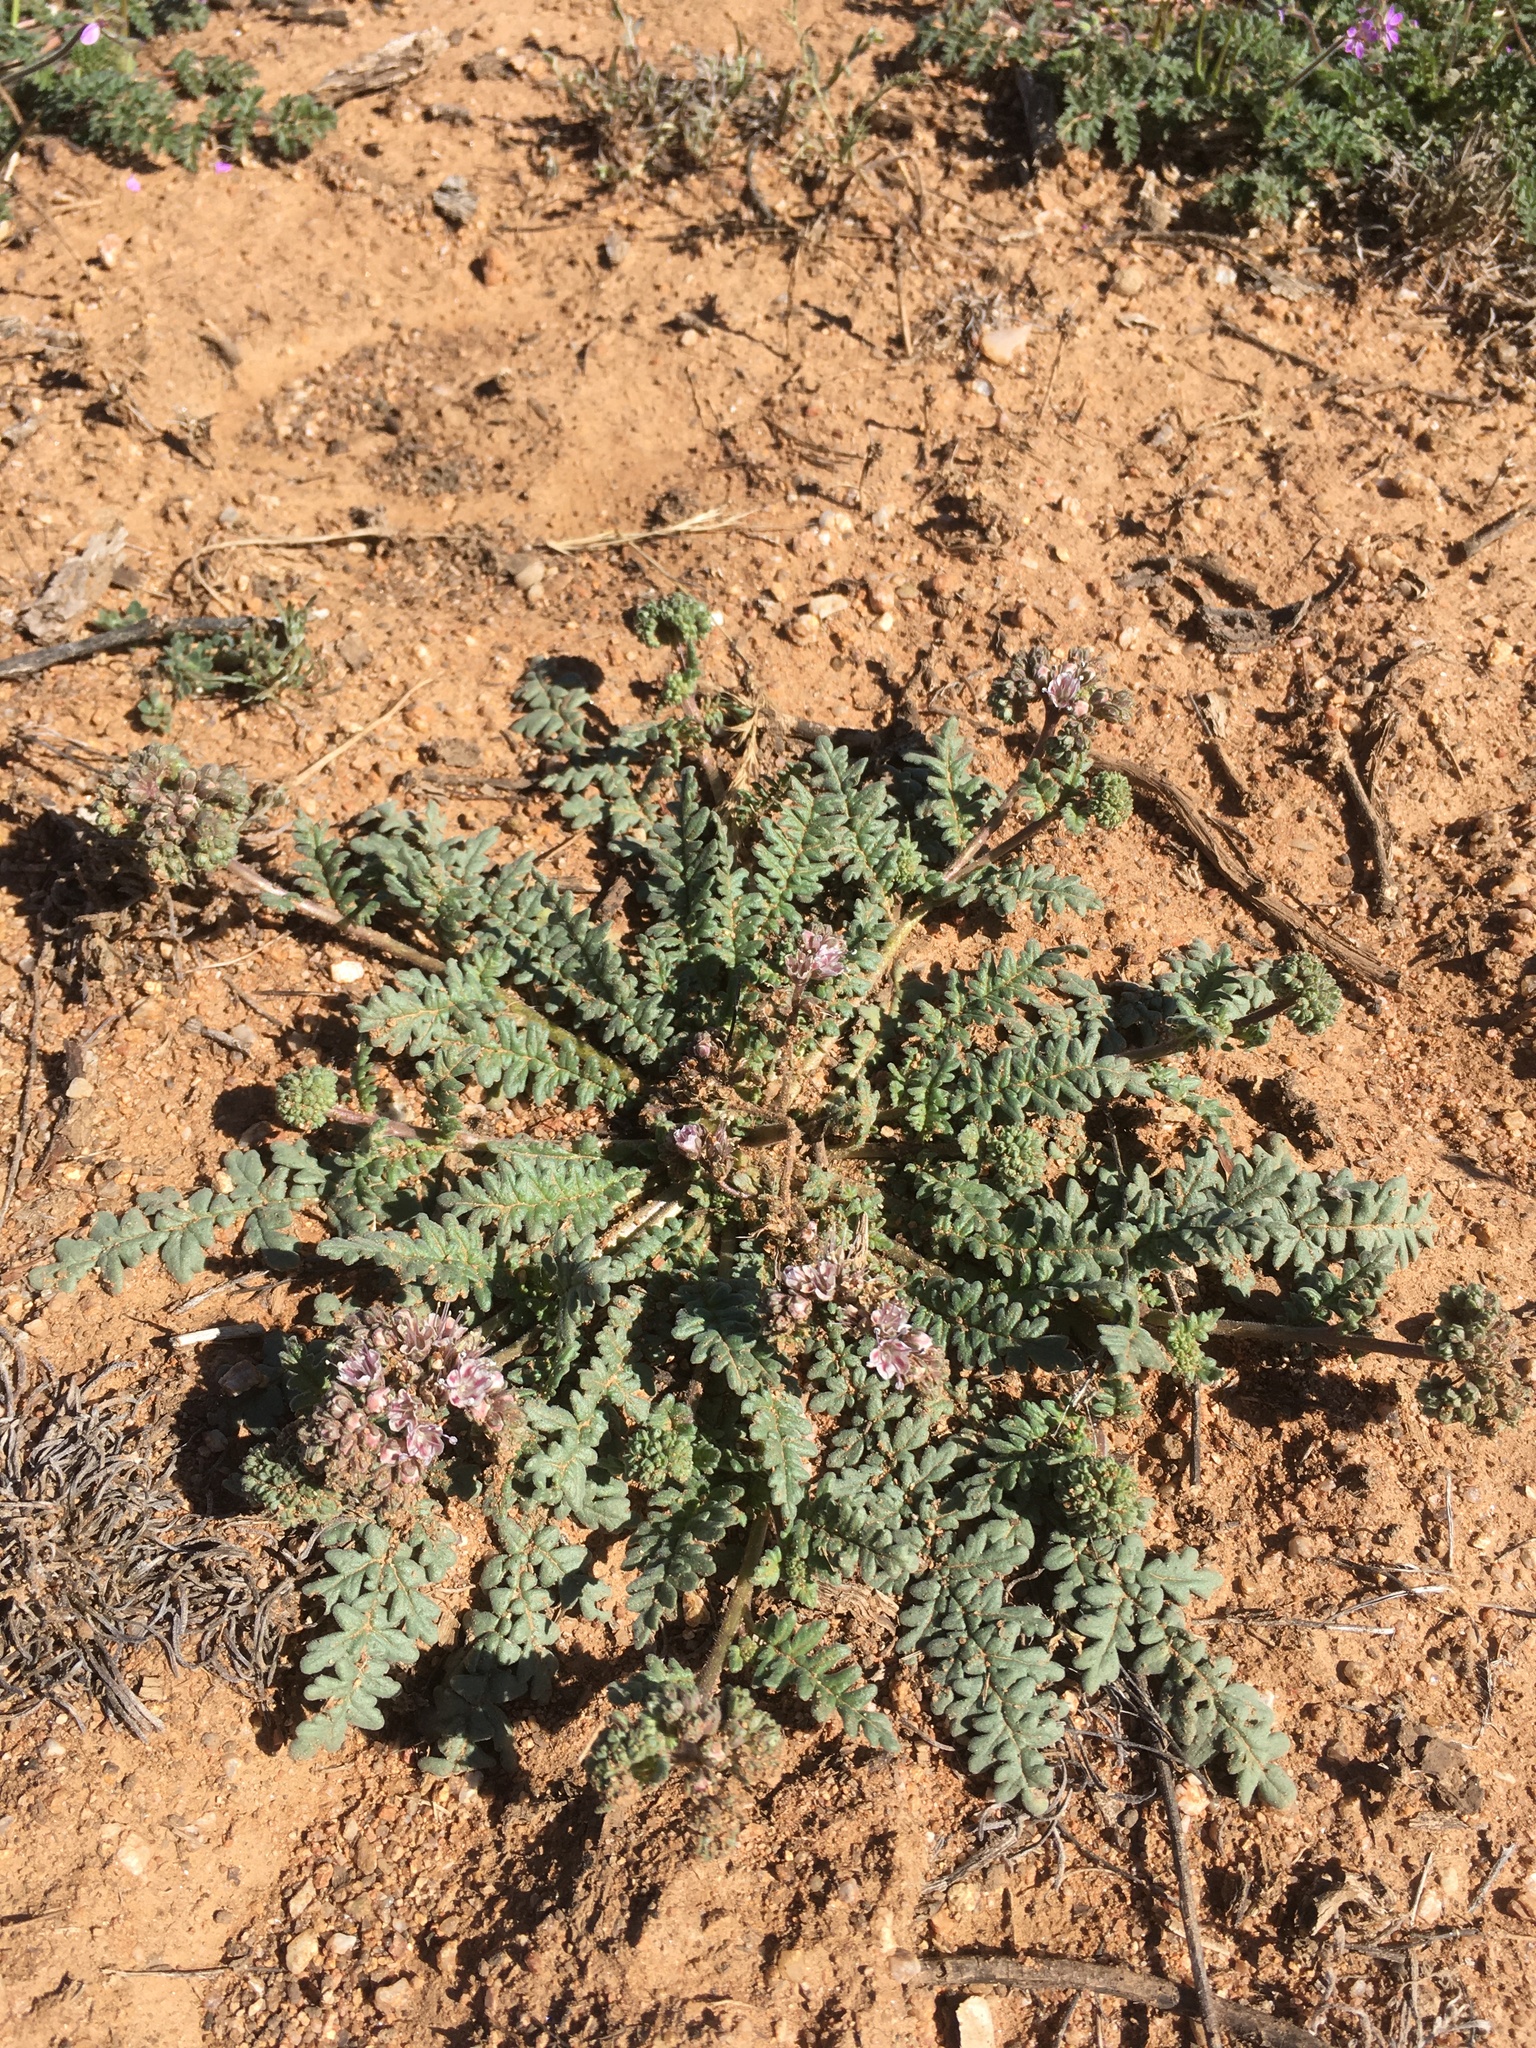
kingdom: Plantae
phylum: Tracheophyta
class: Magnoliopsida
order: Boraginales
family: Hydrophyllaceae
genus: Phacelia
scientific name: Phacelia arizonica
